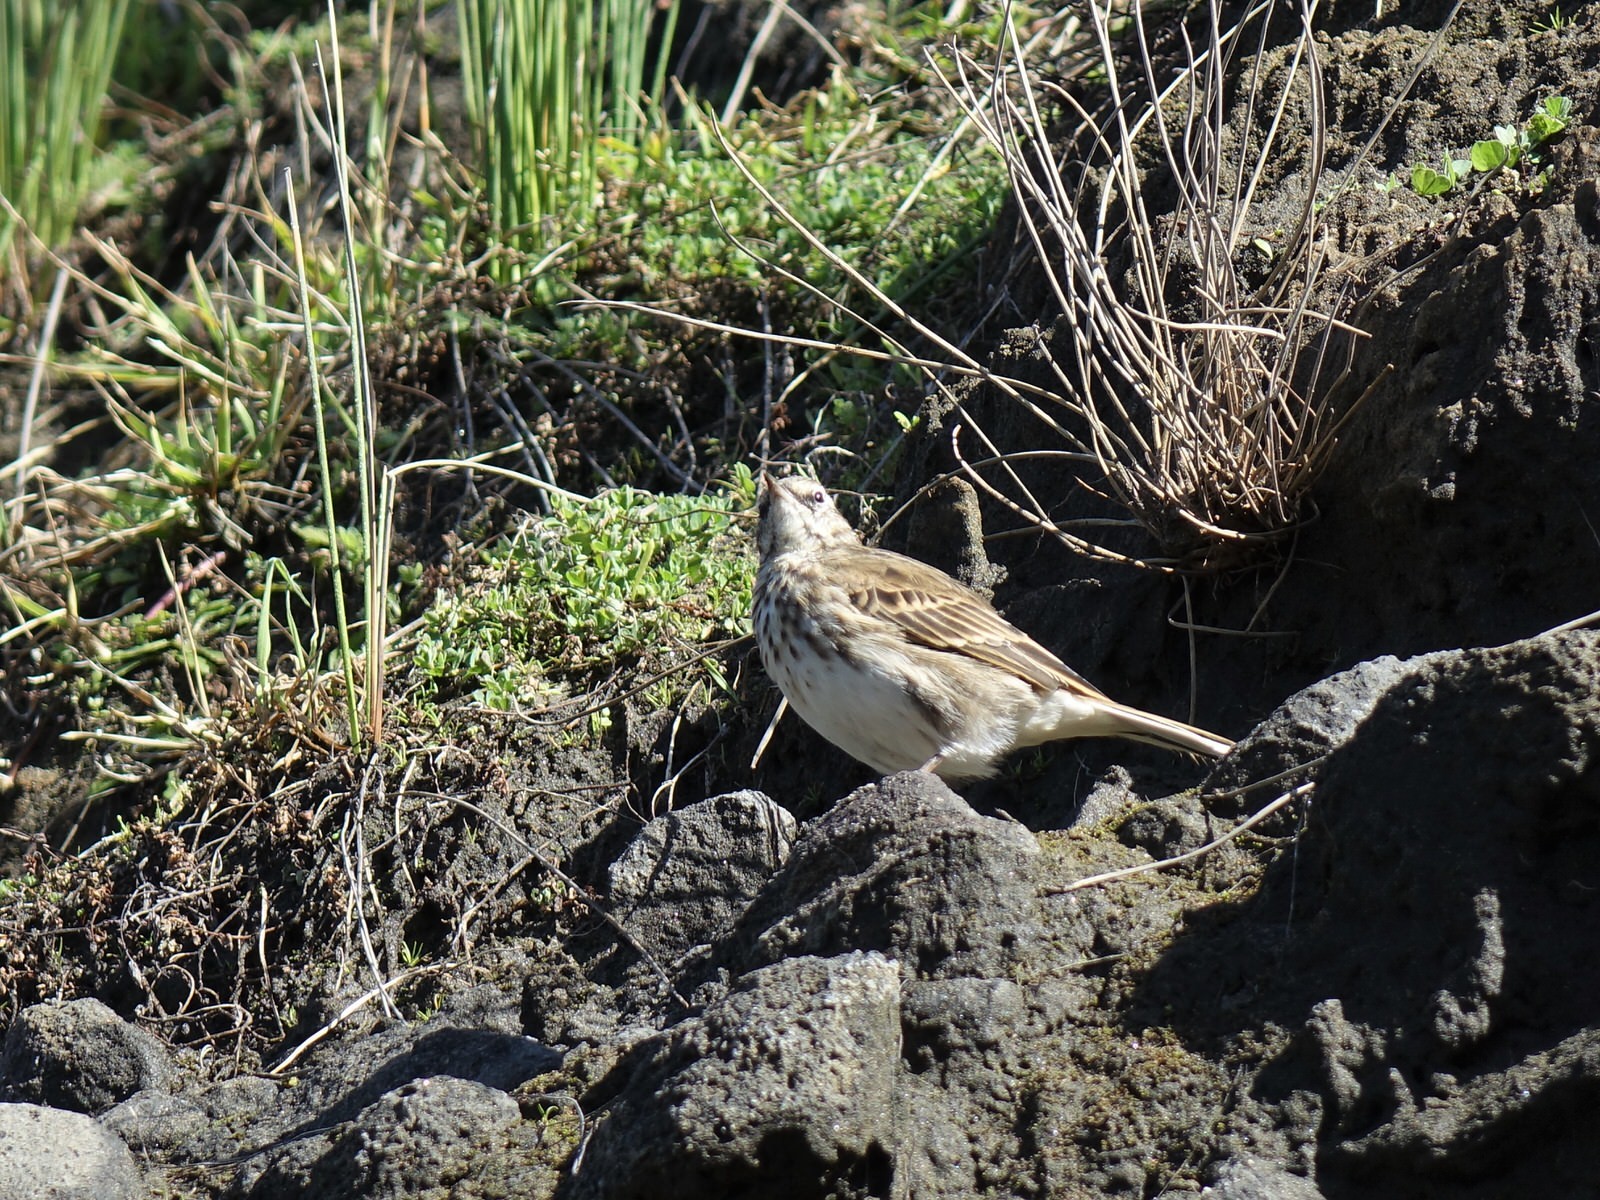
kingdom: Animalia
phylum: Chordata
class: Aves
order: Passeriformes
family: Motacillidae
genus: Anthus
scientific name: Anthus novaeseelandiae
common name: New zealand pipit
